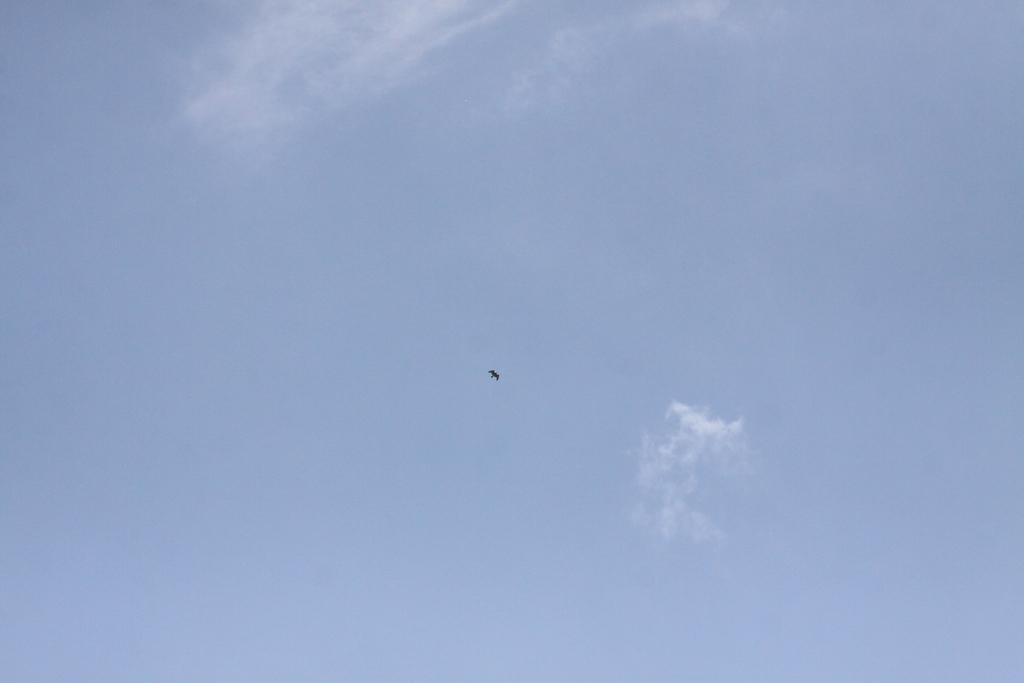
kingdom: Animalia
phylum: Chordata
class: Aves
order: Accipitriformes
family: Accipitridae
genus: Circaetus
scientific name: Circaetus gallicus
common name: Short-toed snake eagle
